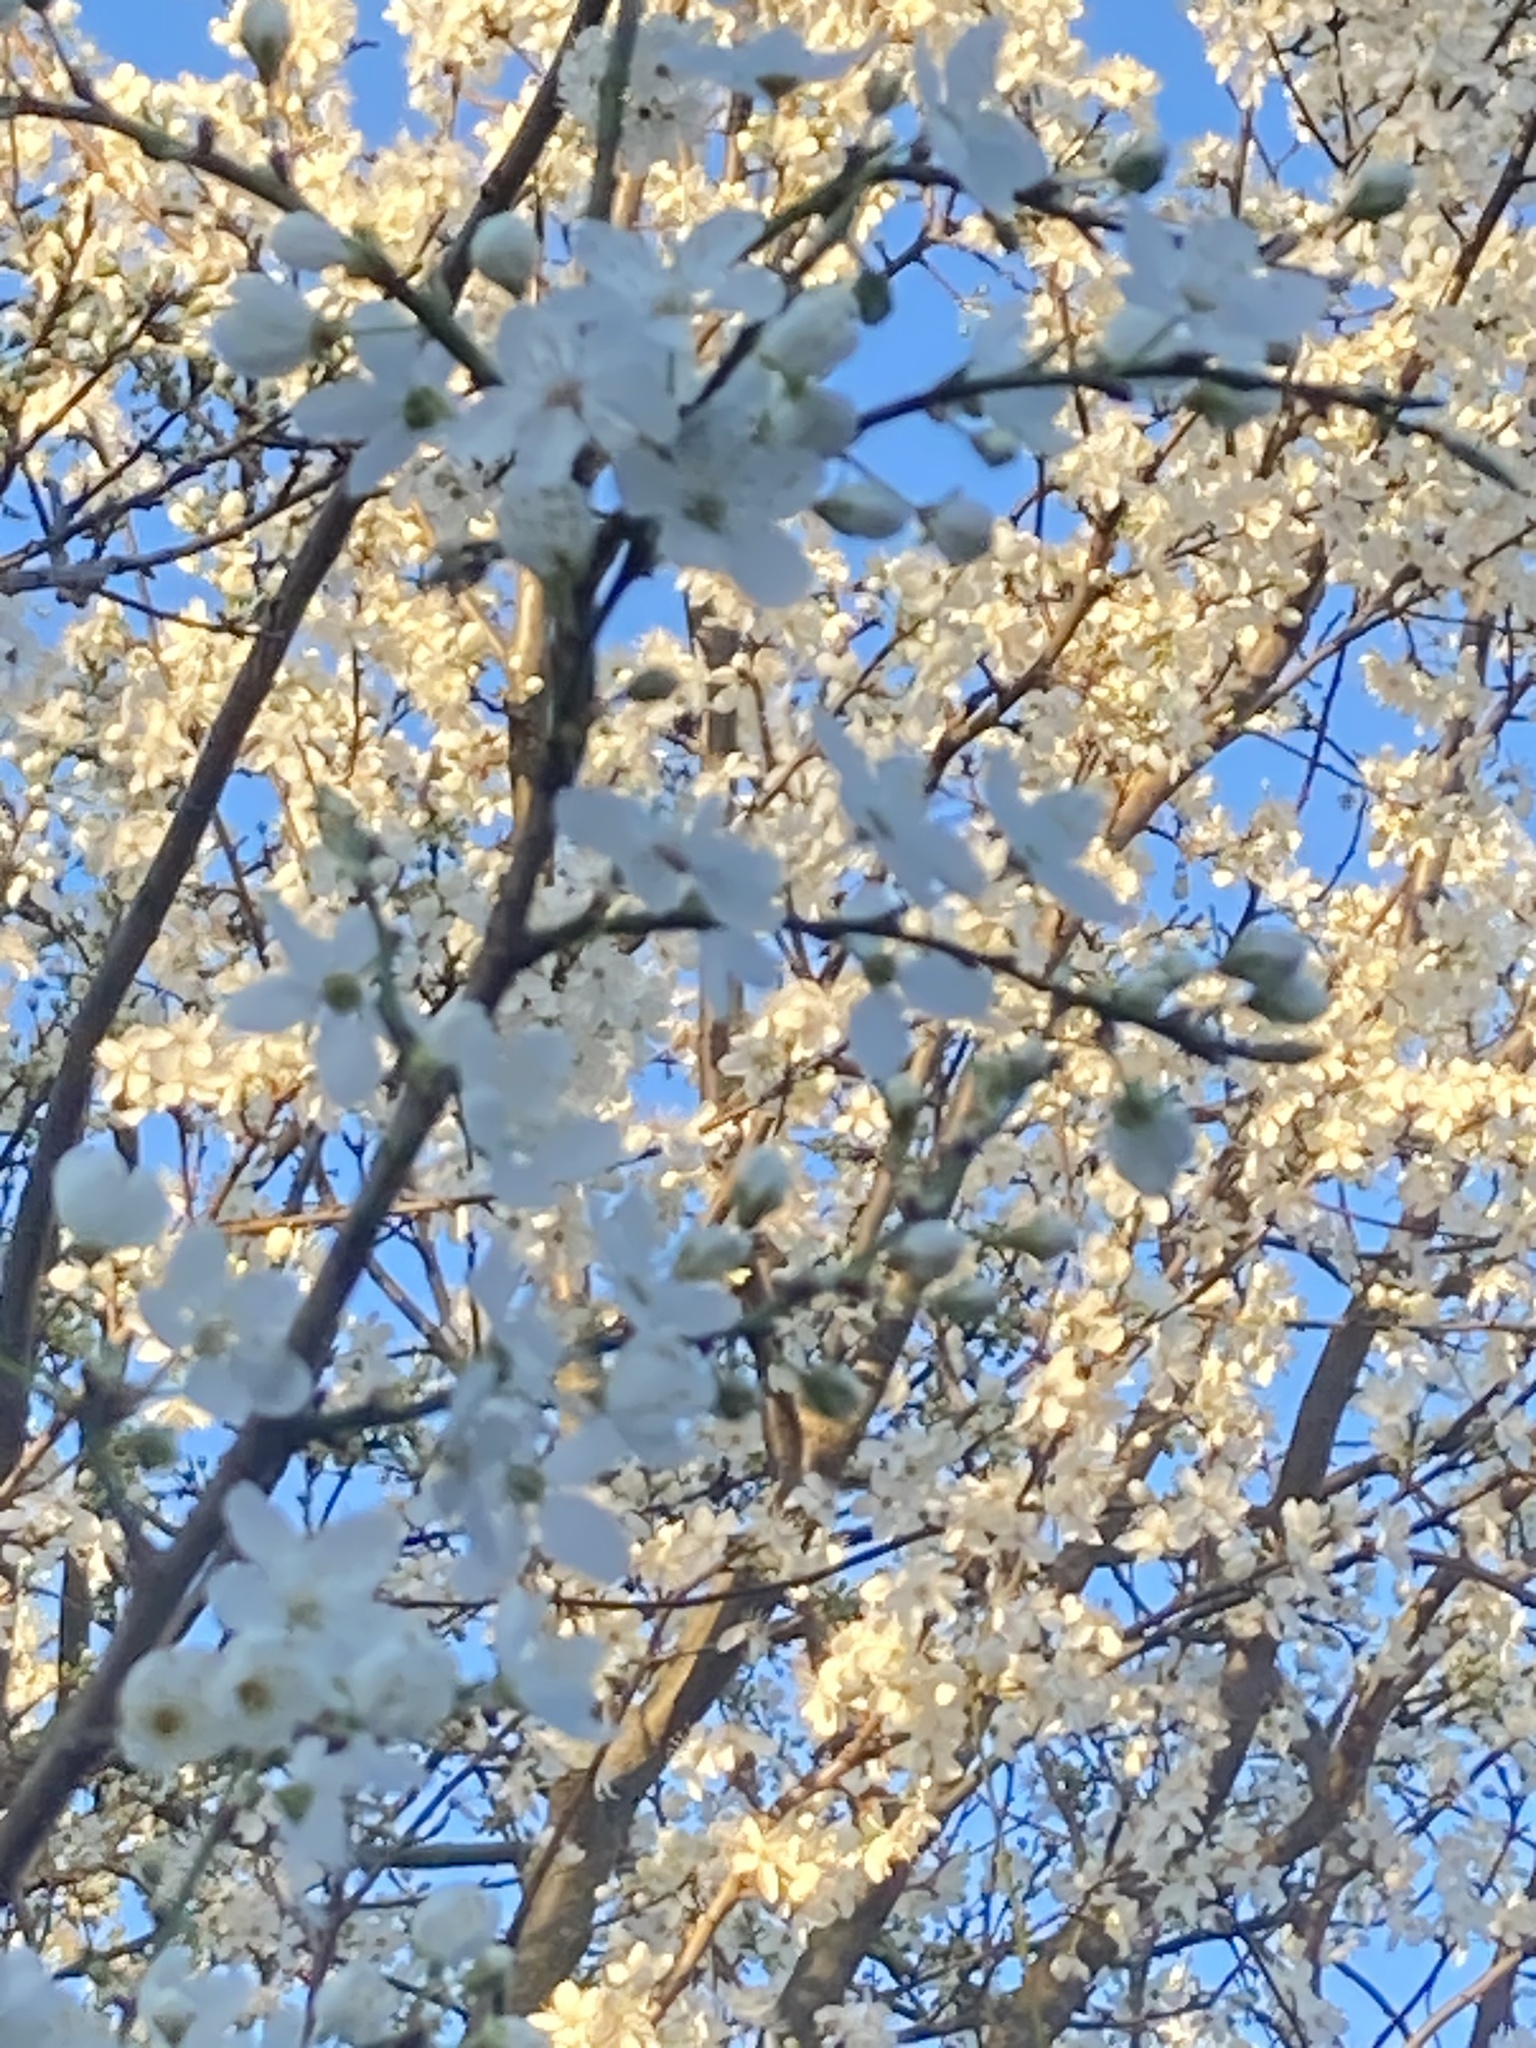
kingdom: Plantae
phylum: Tracheophyta
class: Magnoliopsida
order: Rosales
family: Rosaceae
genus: Prunus
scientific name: Prunus cerasifera
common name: Cherry plum
